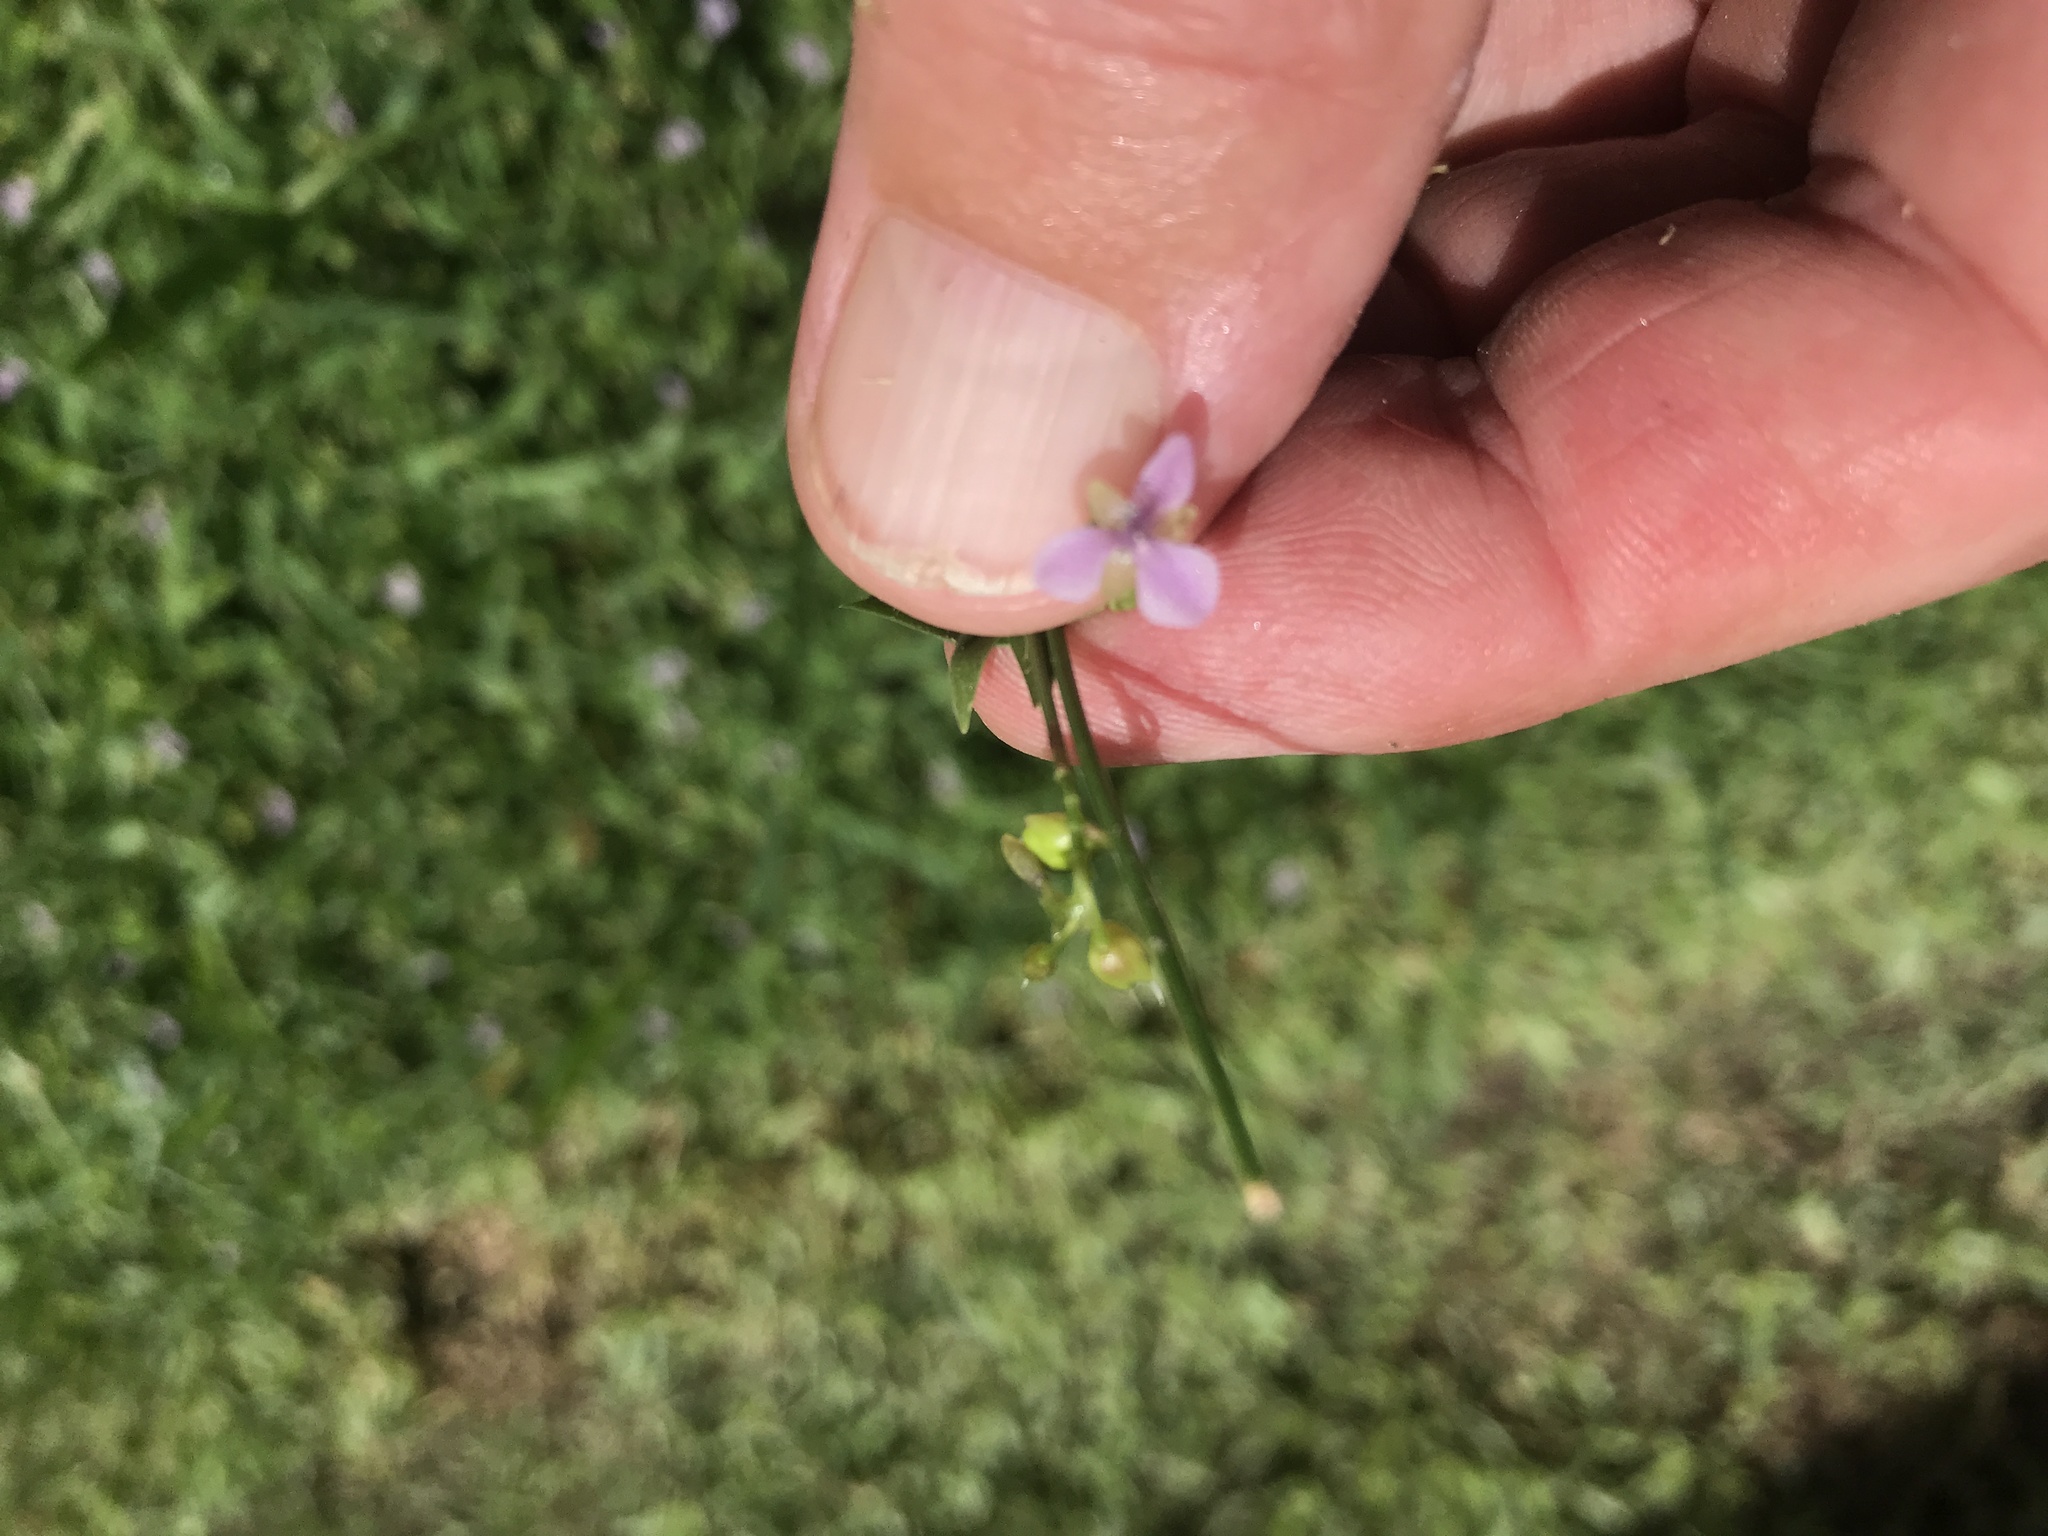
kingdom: Plantae
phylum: Tracheophyta
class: Liliopsida
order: Commelinales
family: Commelinaceae
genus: Murdannia
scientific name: Murdannia nudiflora
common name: Nakedstem dewflower
